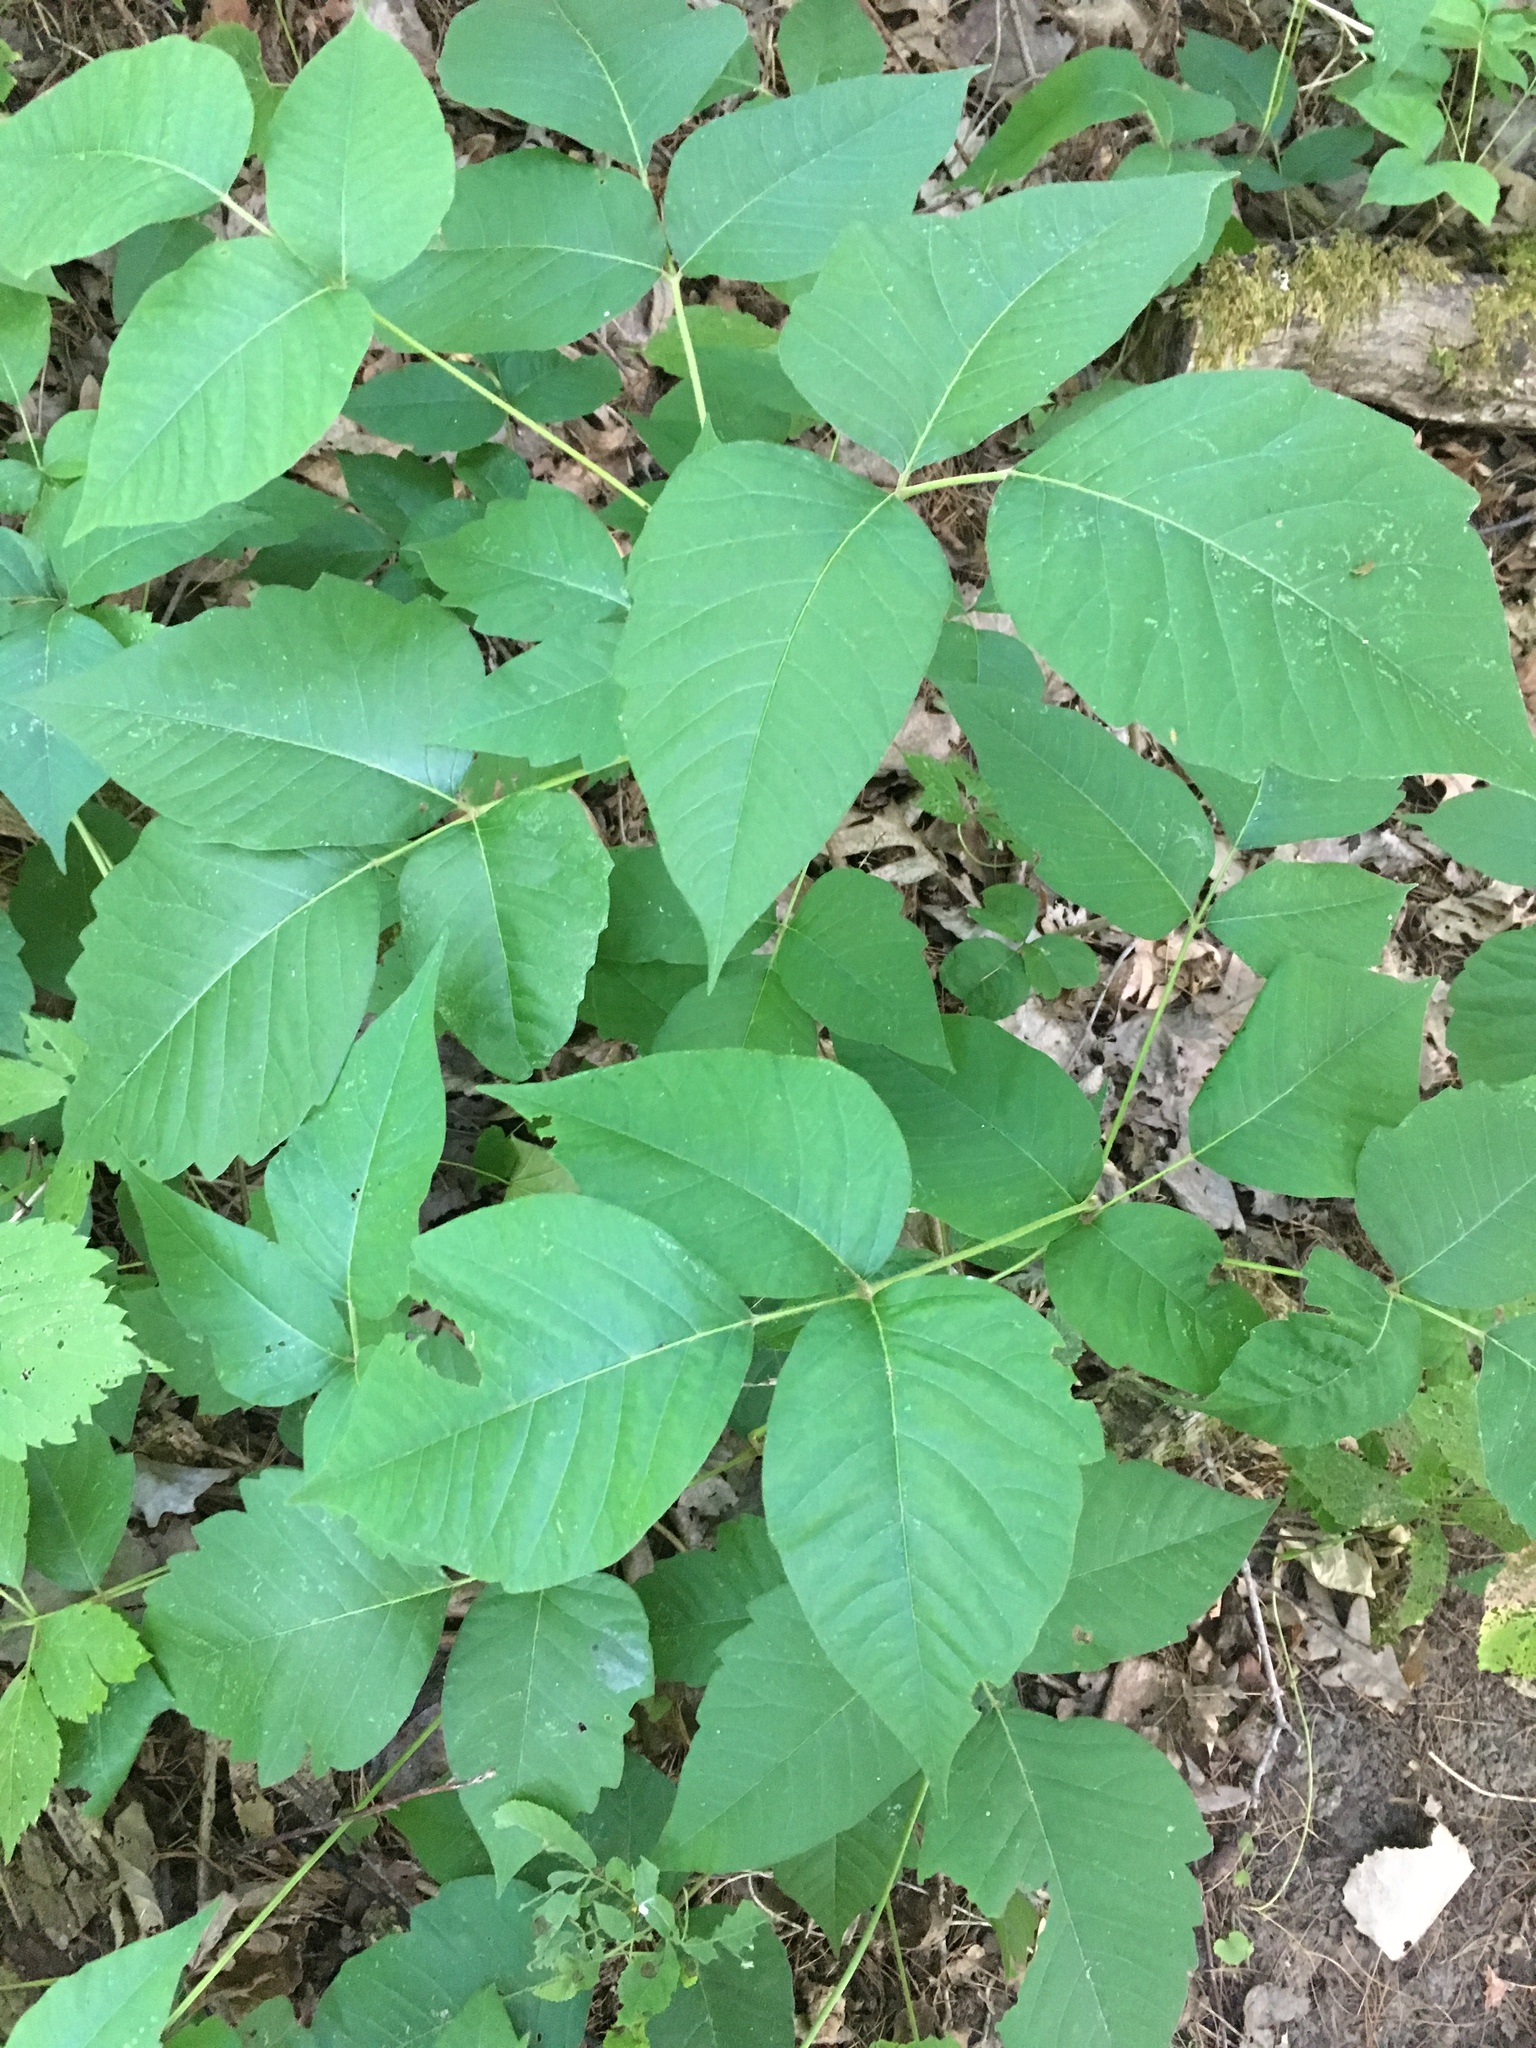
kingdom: Plantae
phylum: Tracheophyta
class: Magnoliopsida
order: Sapindales
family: Anacardiaceae
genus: Toxicodendron
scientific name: Toxicodendron radicans
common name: Poison ivy
